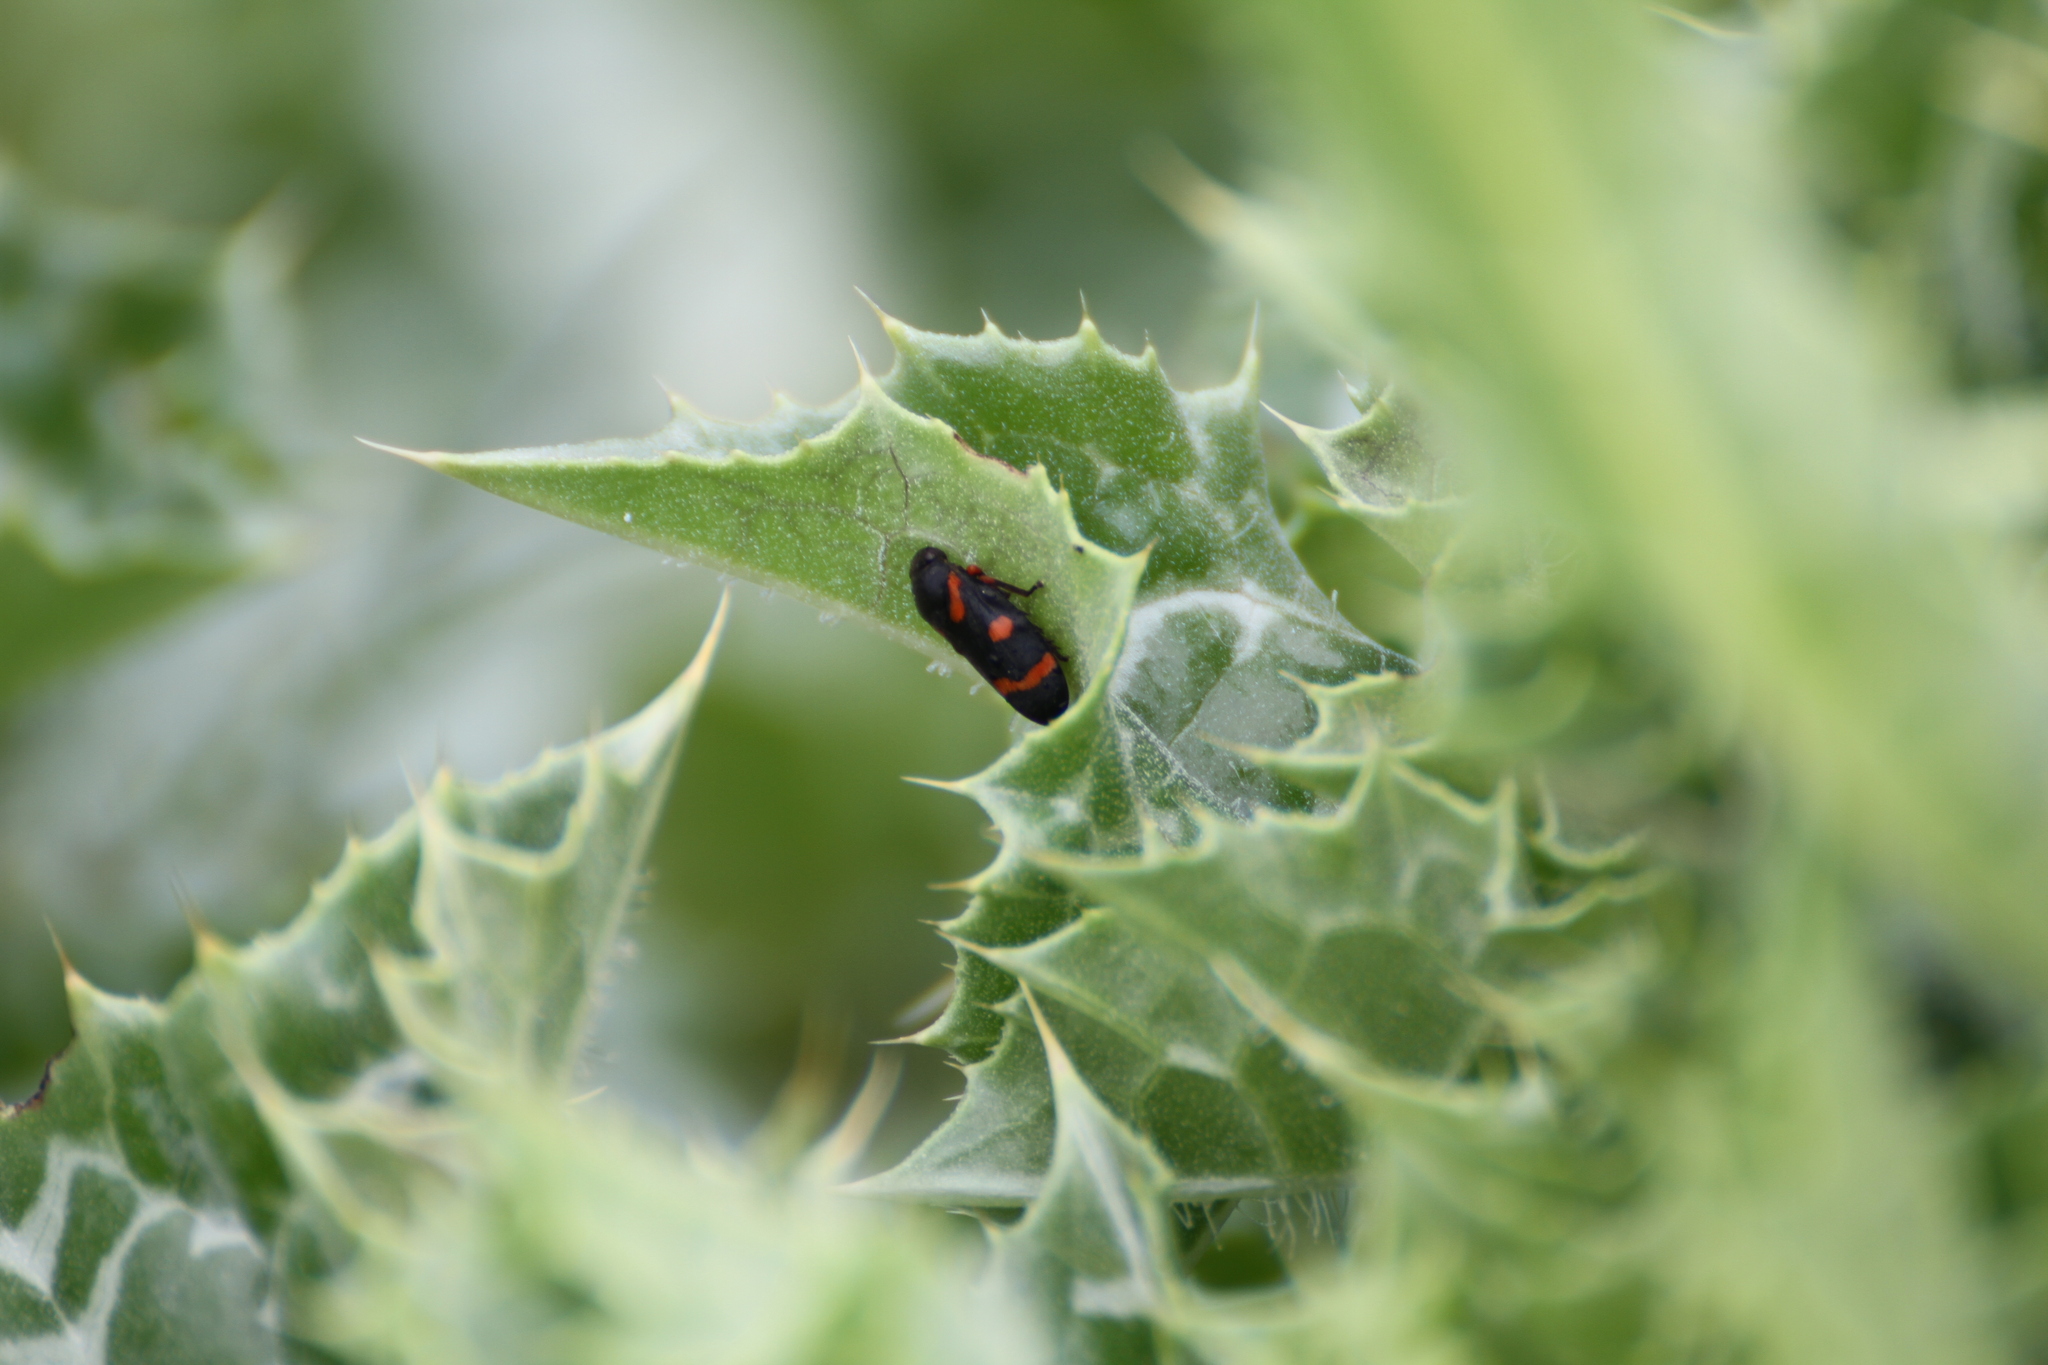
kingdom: Animalia
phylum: Arthropoda
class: Insecta
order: Hemiptera
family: Cercopidae
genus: Cercopis
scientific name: Cercopis intermedia
